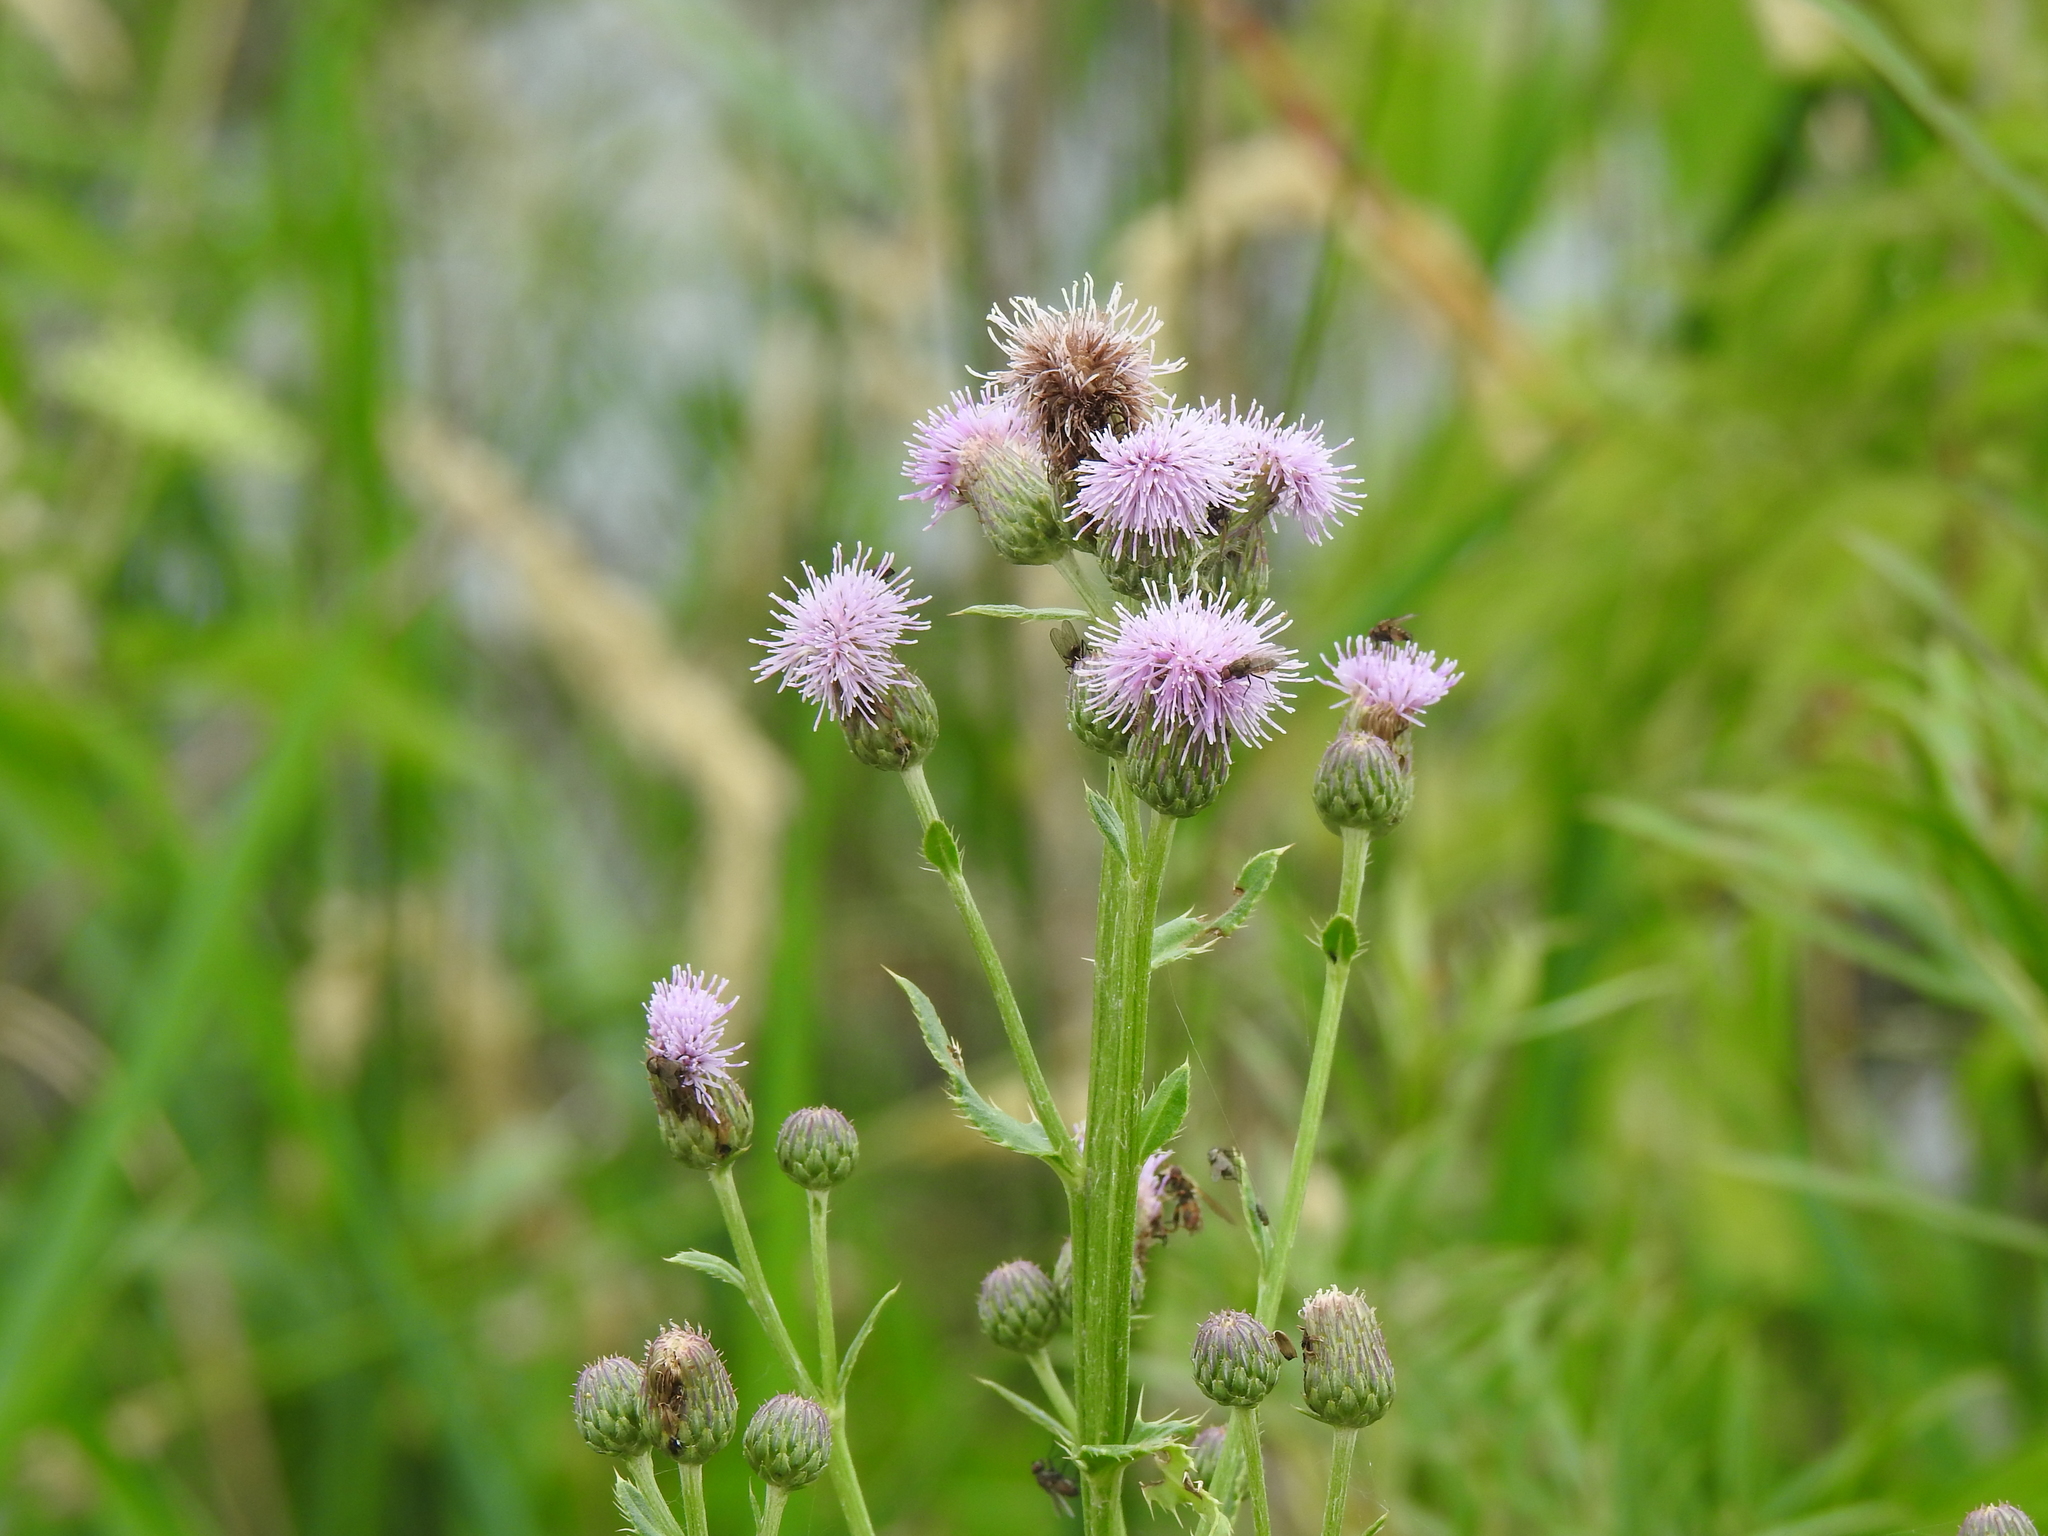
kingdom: Plantae
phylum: Tracheophyta
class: Magnoliopsida
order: Asterales
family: Asteraceae
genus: Cirsium
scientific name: Cirsium arvense
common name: Creeping thistle
